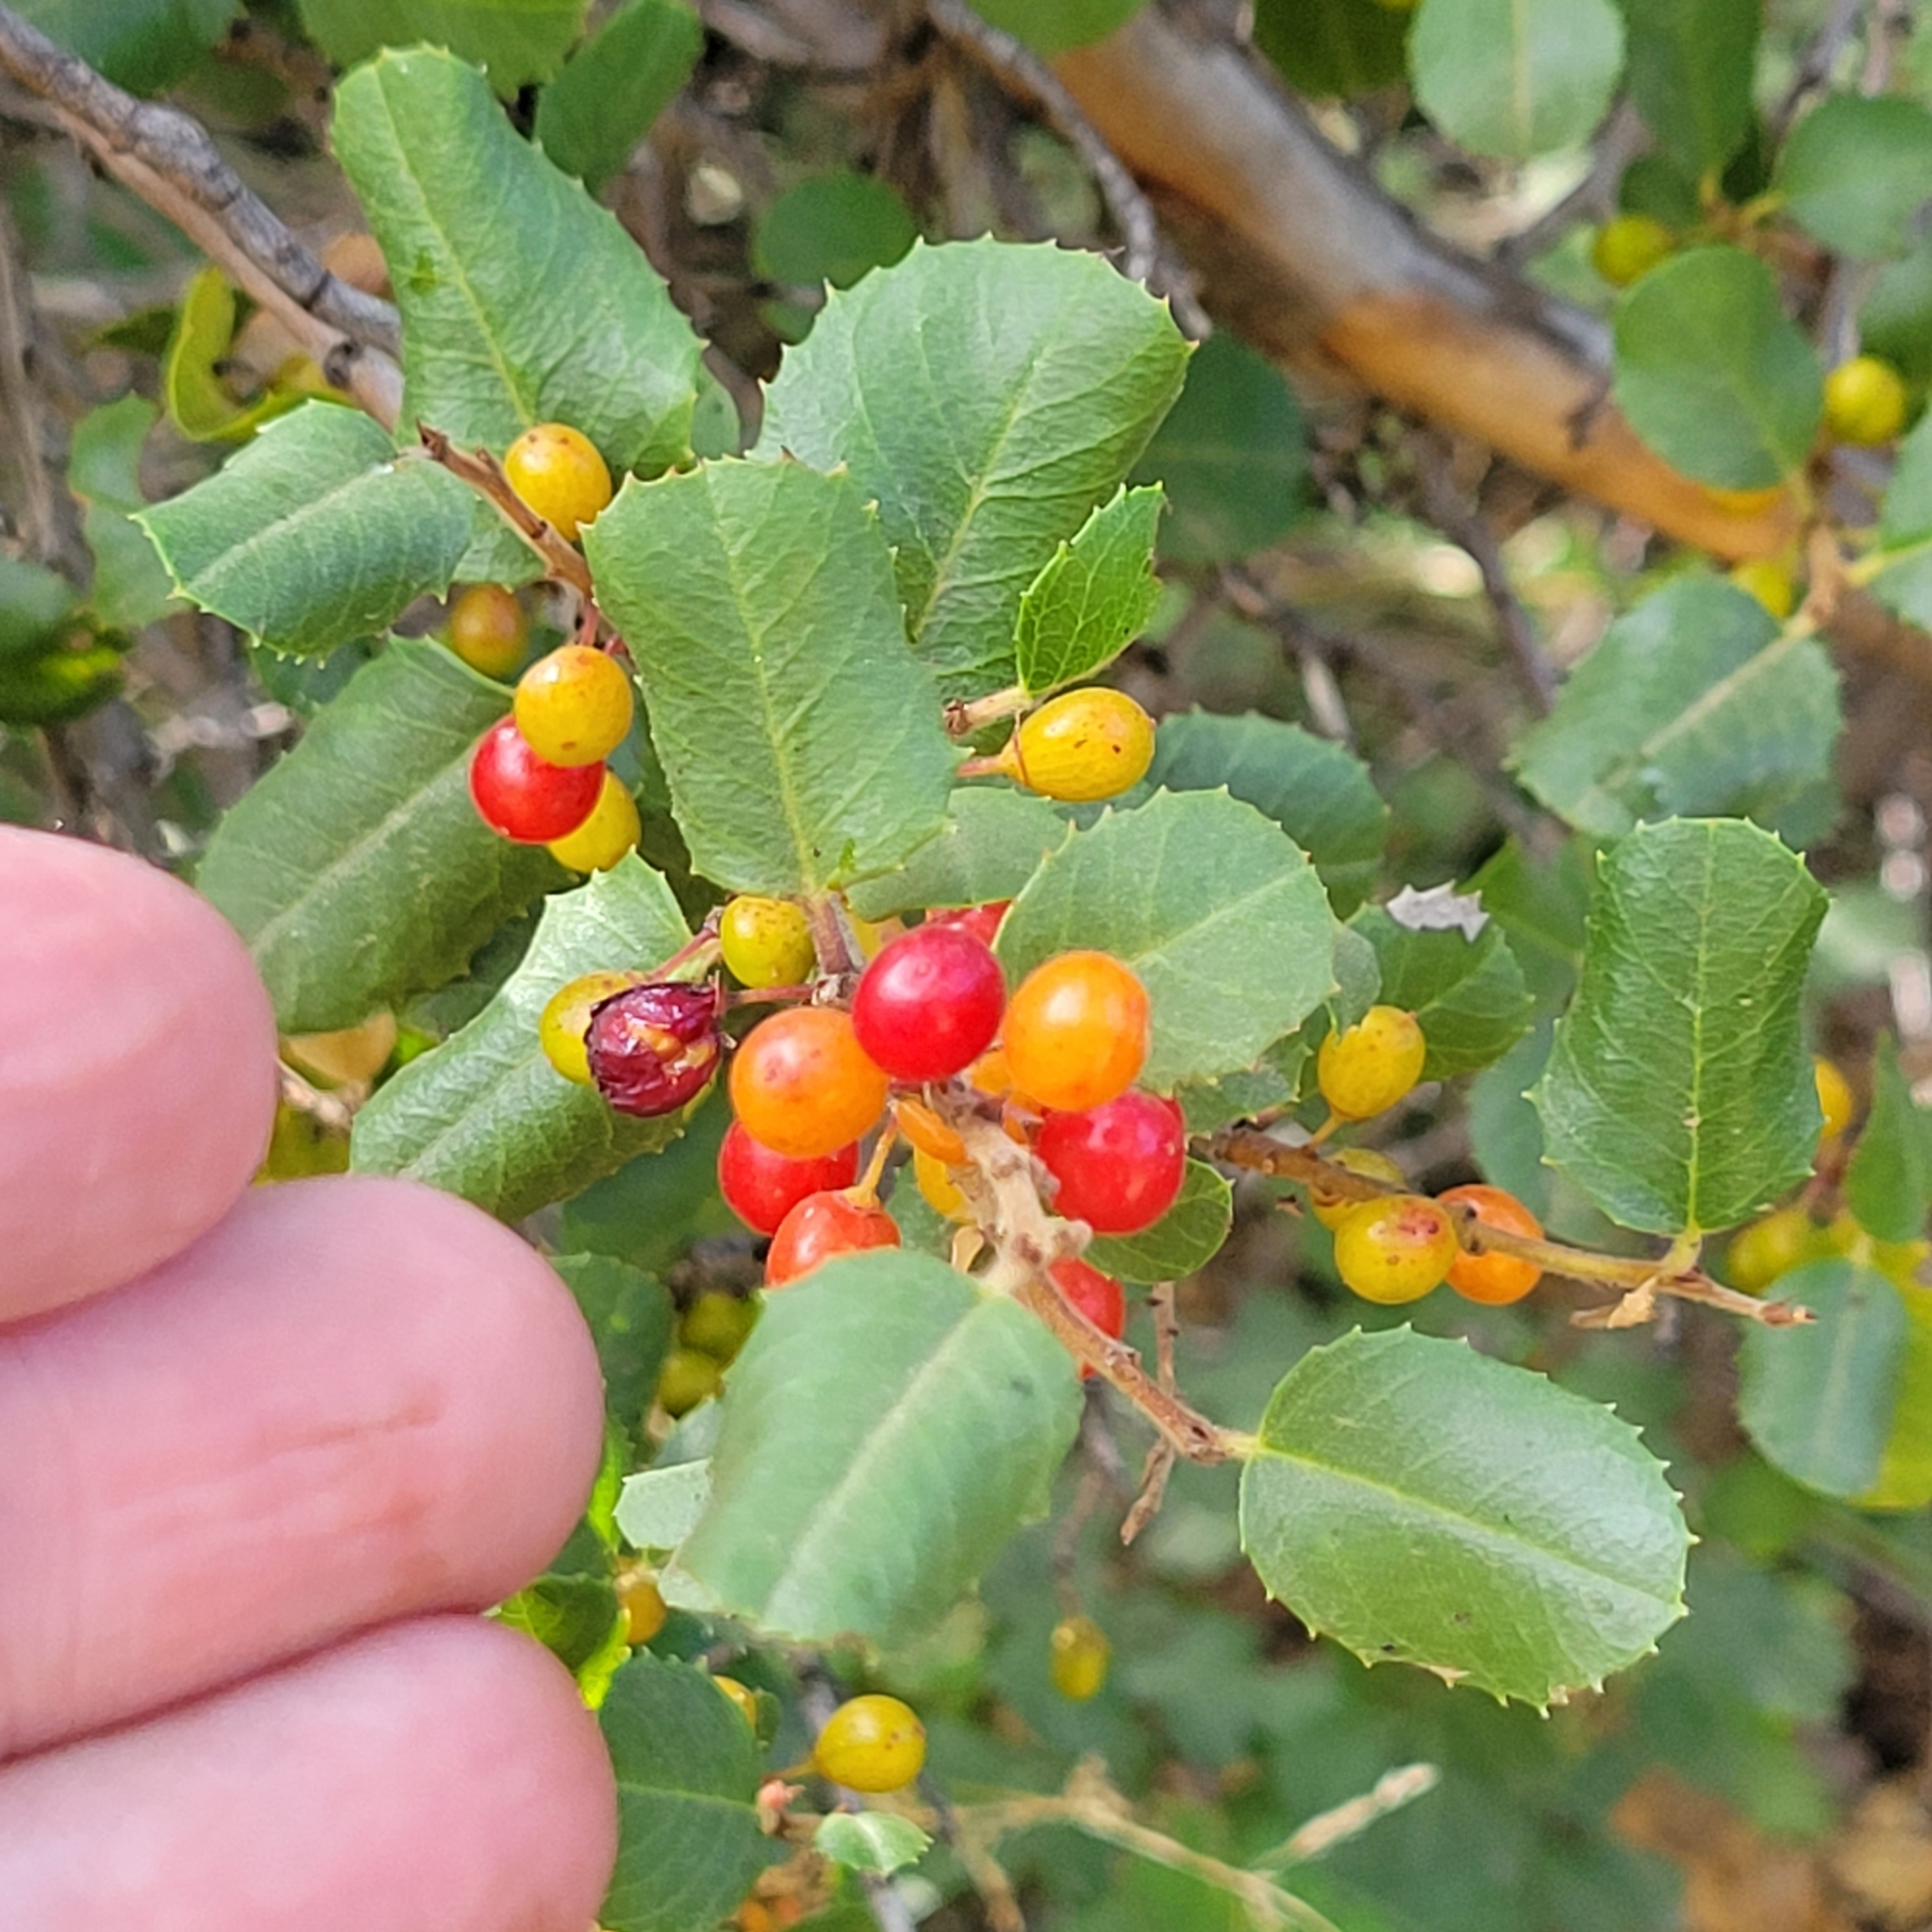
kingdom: Plantae
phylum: Tracheophyta
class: Magnoliopsida
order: Rosales
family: Rhamnaceae
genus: Endotropis
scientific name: Endotropis crocea
